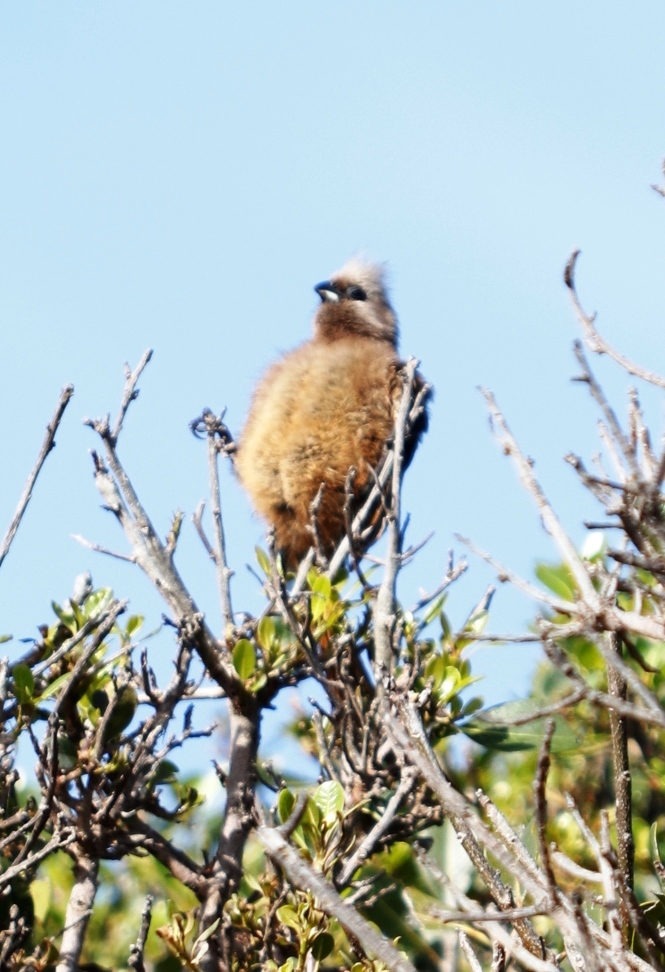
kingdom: Animalia
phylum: Chordata
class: Aves
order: Coliiformes
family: Coliidae
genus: Colius
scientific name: Colius striatus
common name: Speckled mousebird
